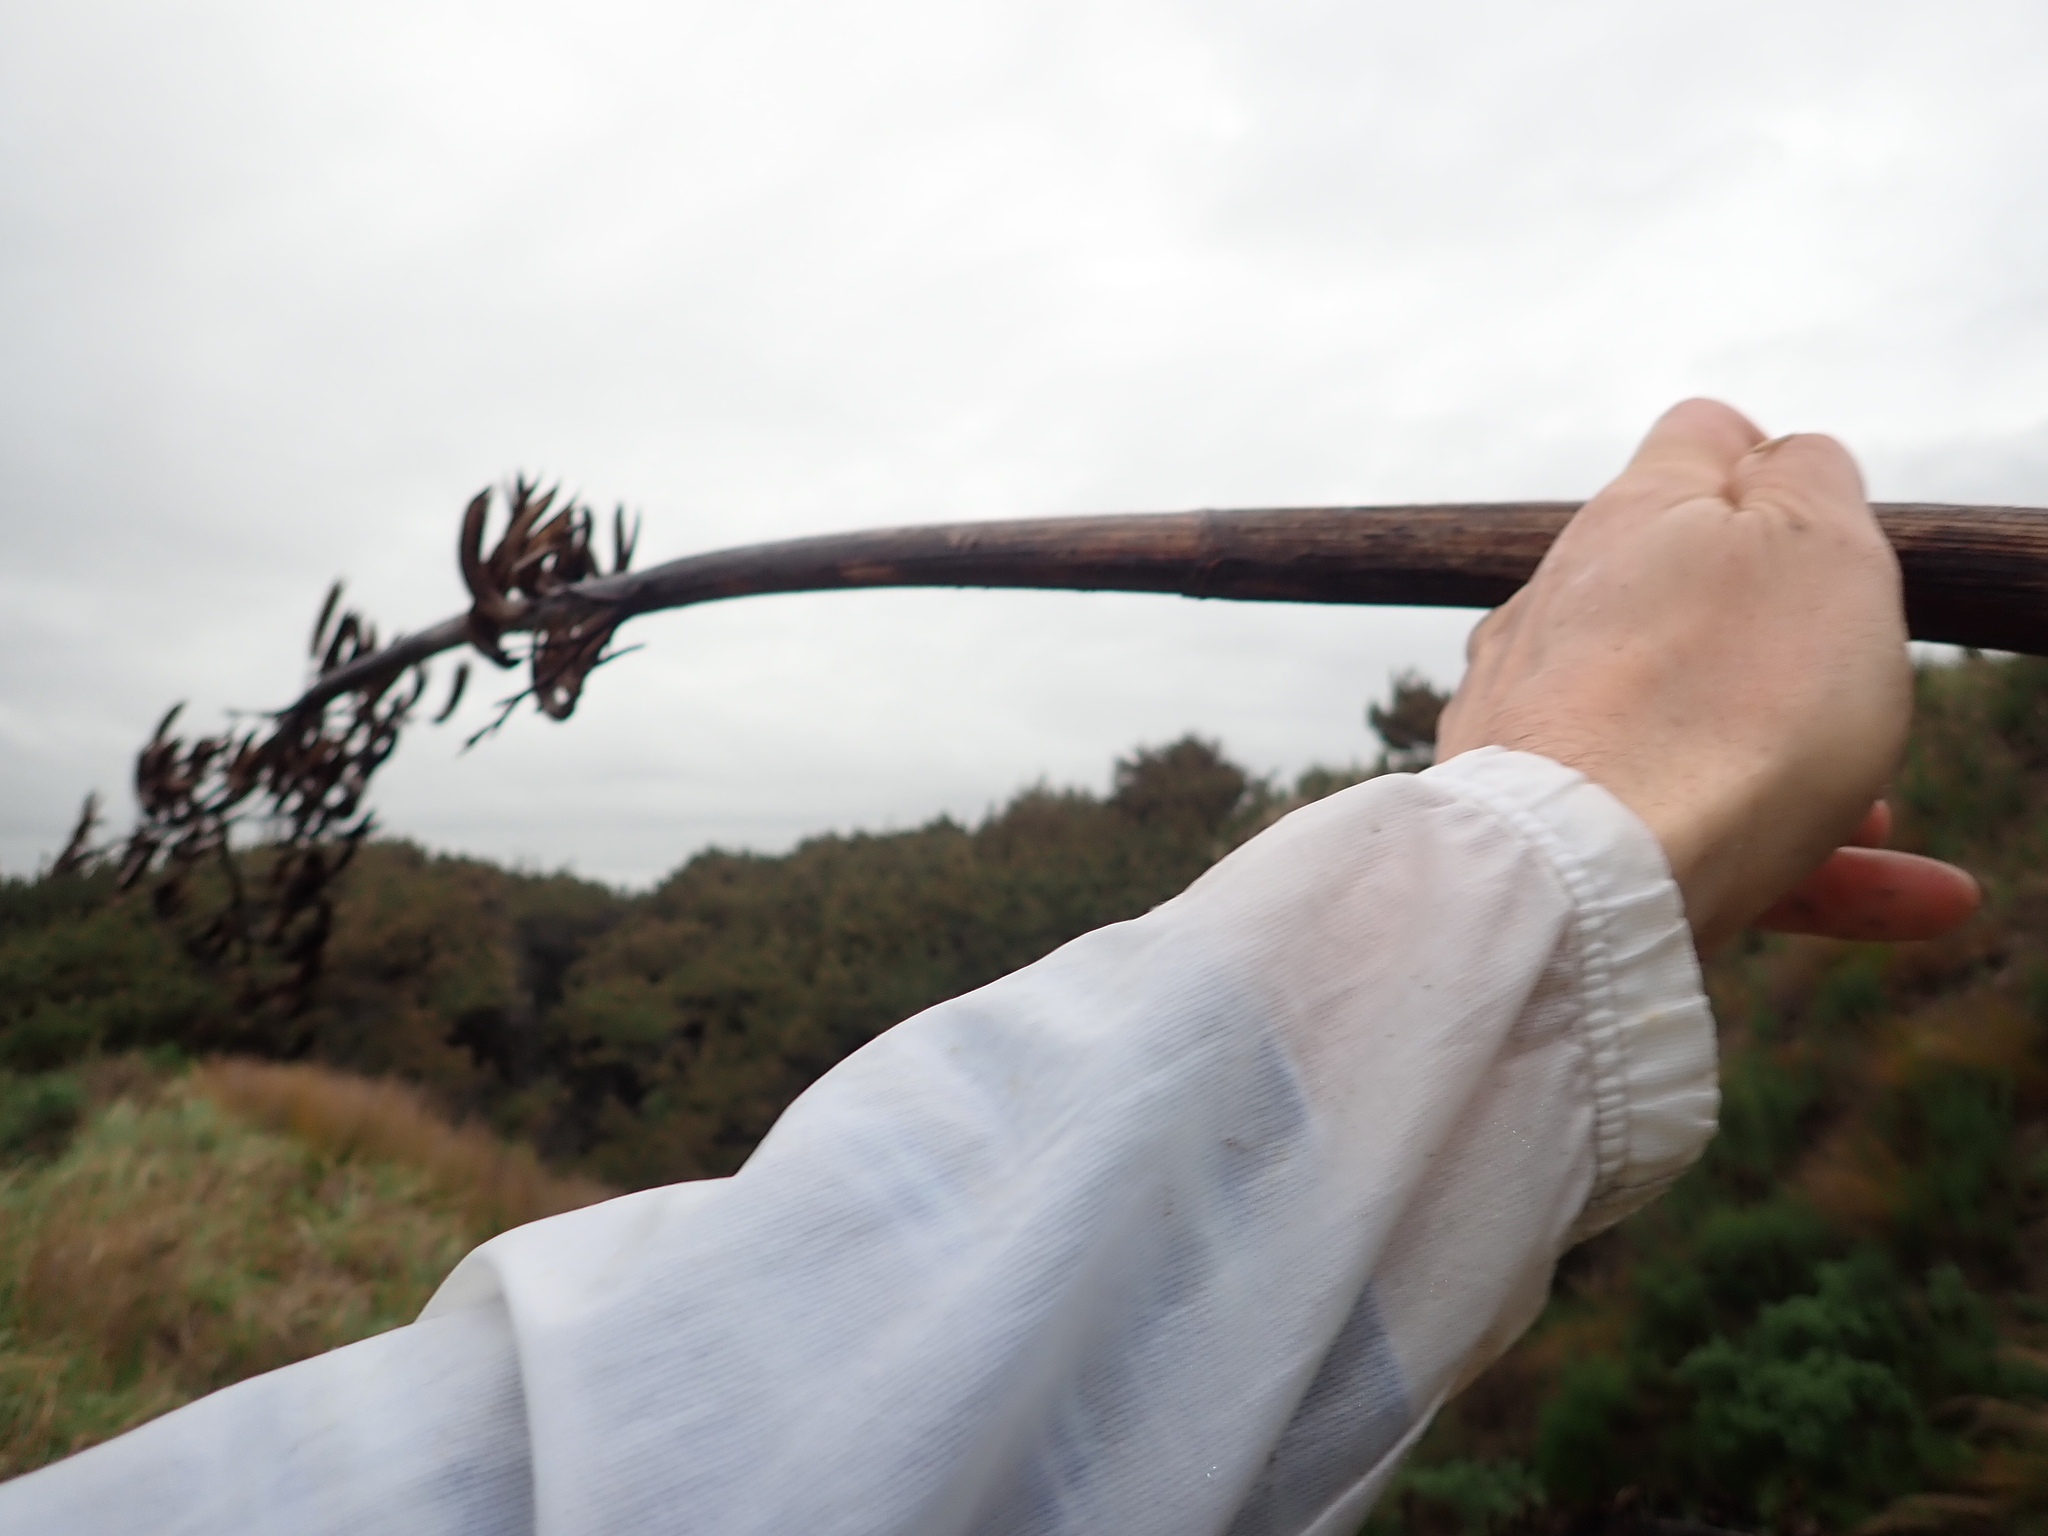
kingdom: Plantae
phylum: Tracheophyta
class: Liliopsida
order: Asparagales
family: Asphodelaceae
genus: Phormium
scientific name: Phormium tenax
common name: New zealand flax
